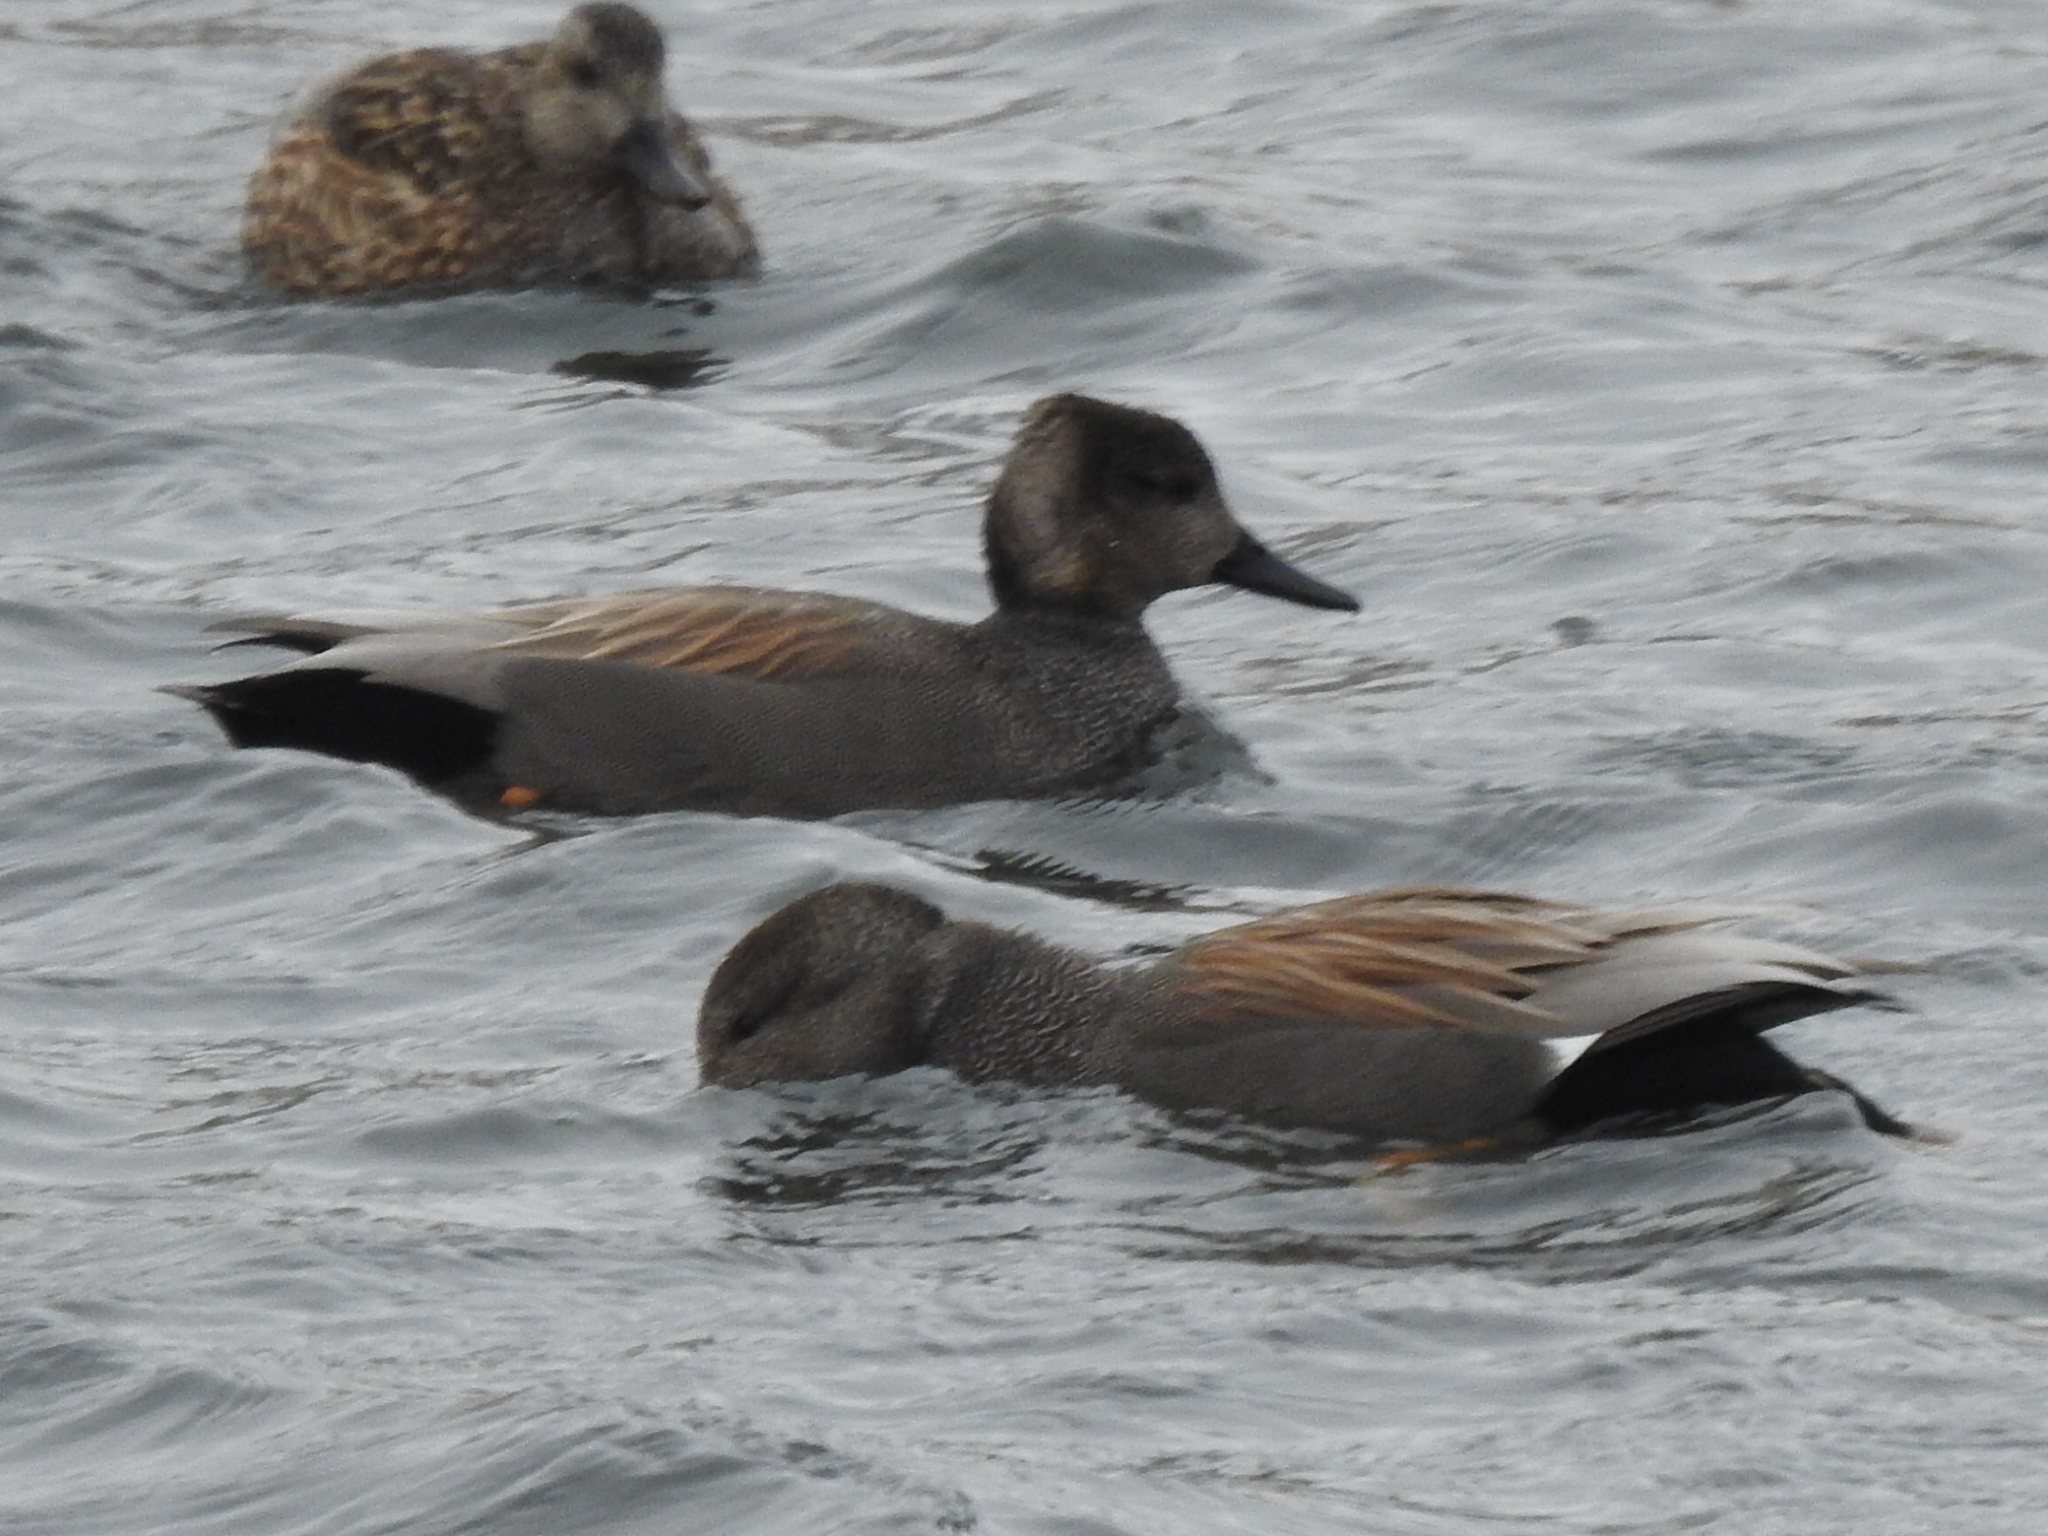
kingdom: Animalia
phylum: Chordata
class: Aves
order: Anseriformes
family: Anatidae
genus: Mareca
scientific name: Mareca strepera
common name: Gadwall
